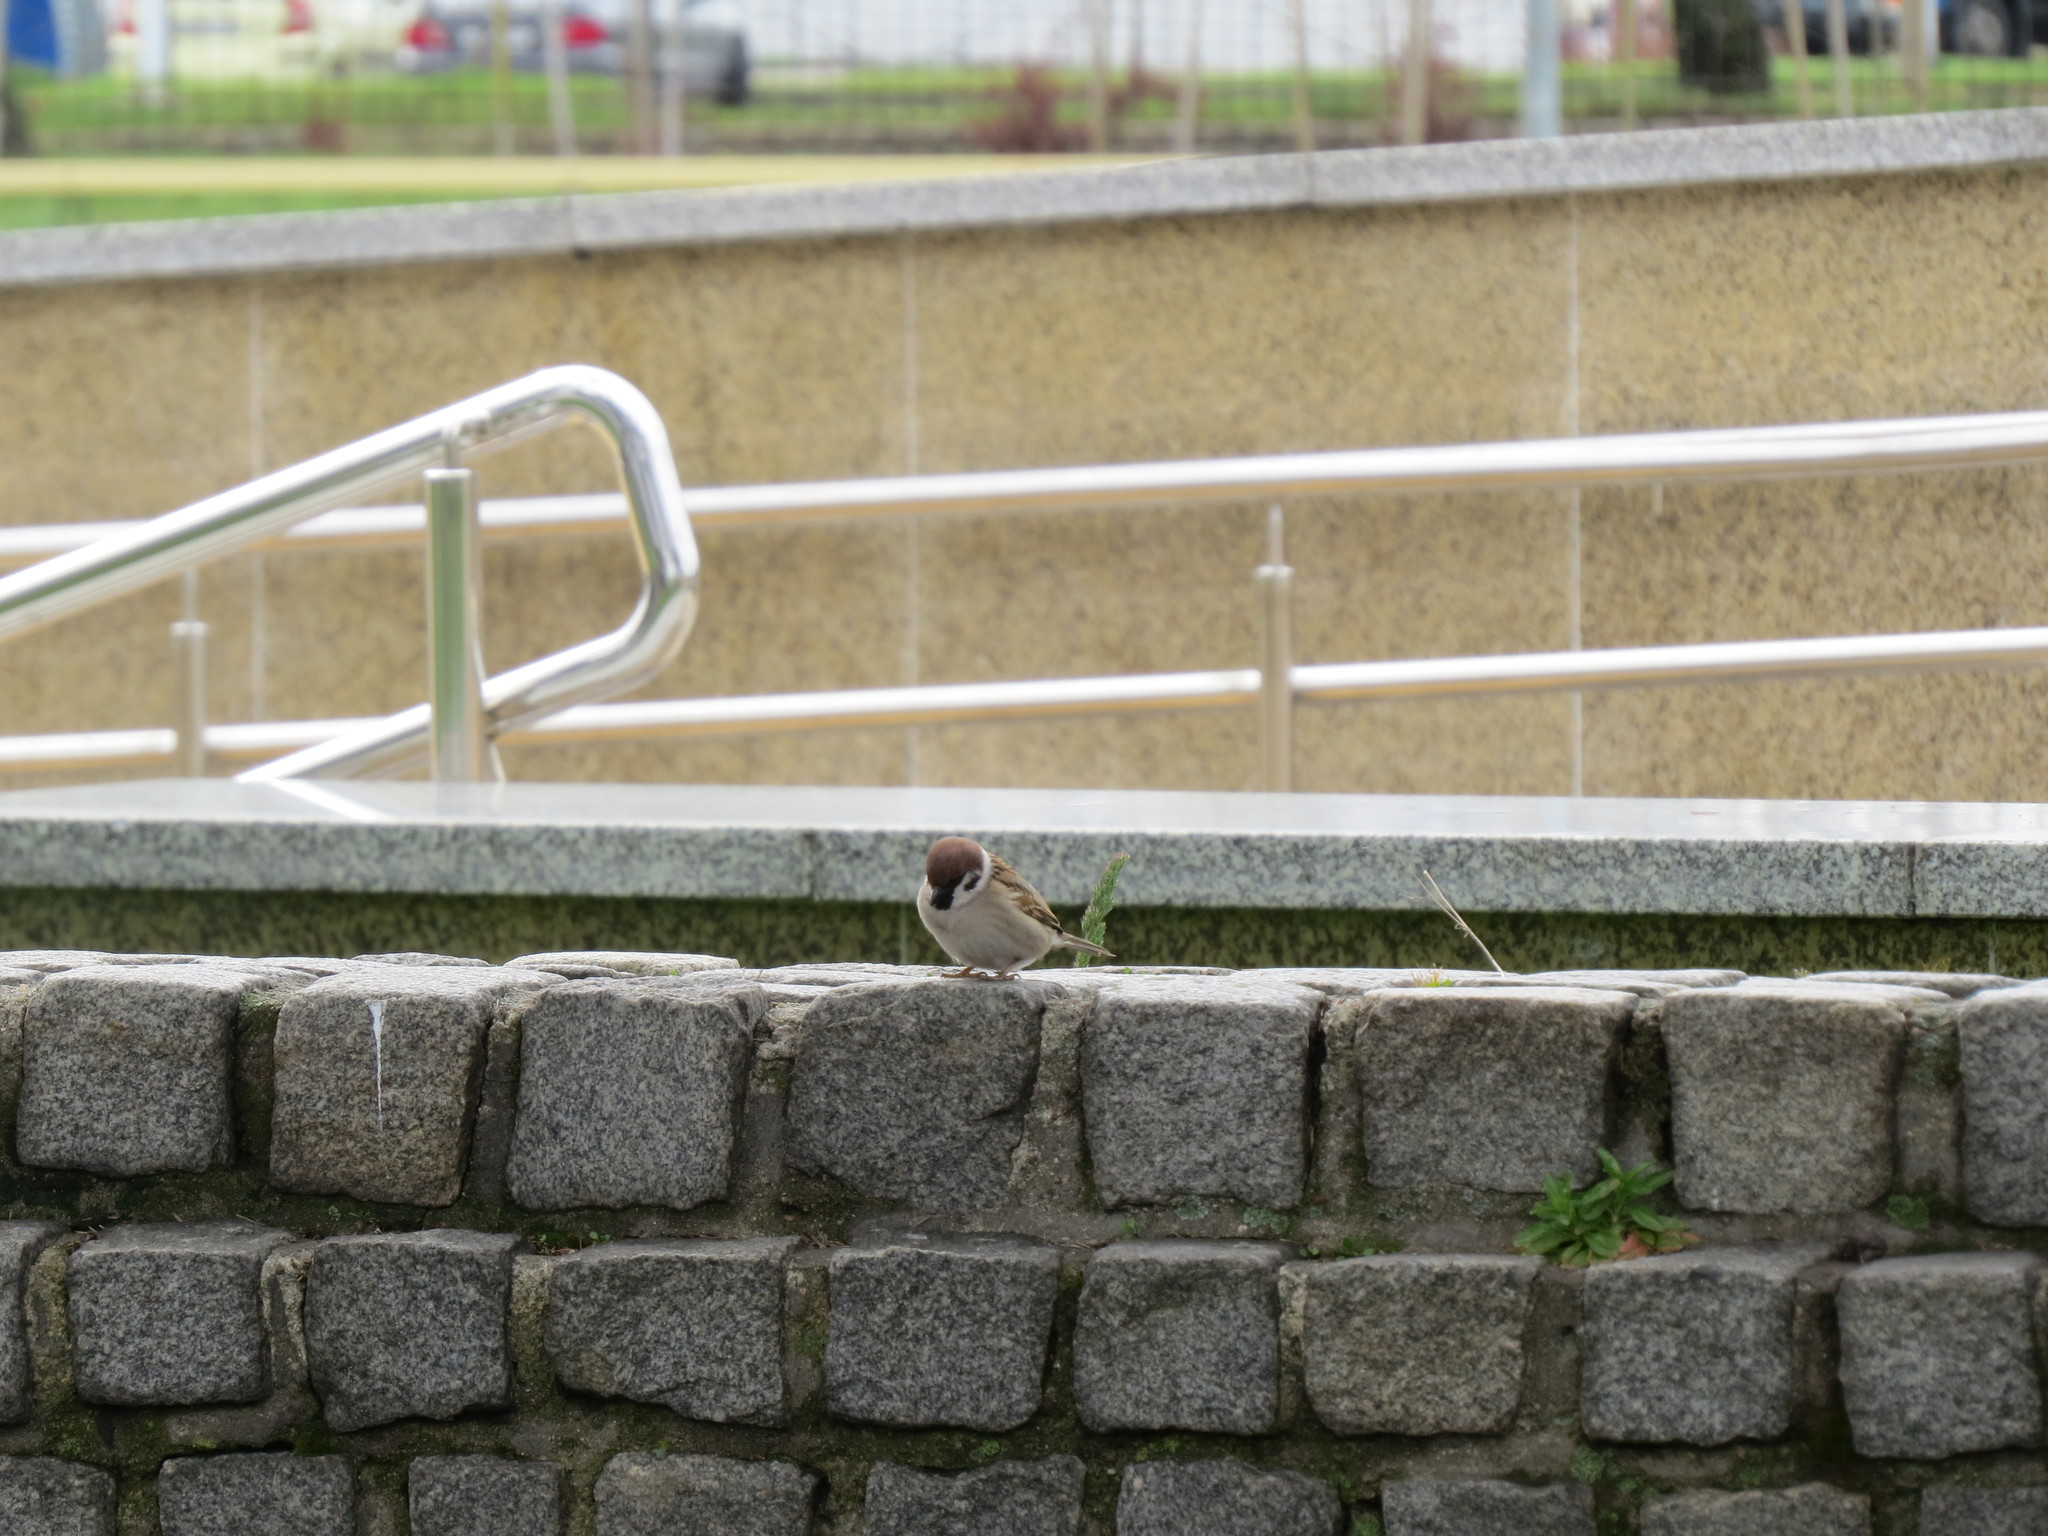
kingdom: Animalia
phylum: Chordata
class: Aves
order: Passeriformes
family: Passeridae
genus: Passer
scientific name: Passer montanus
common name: Eurasian tree sparrow
